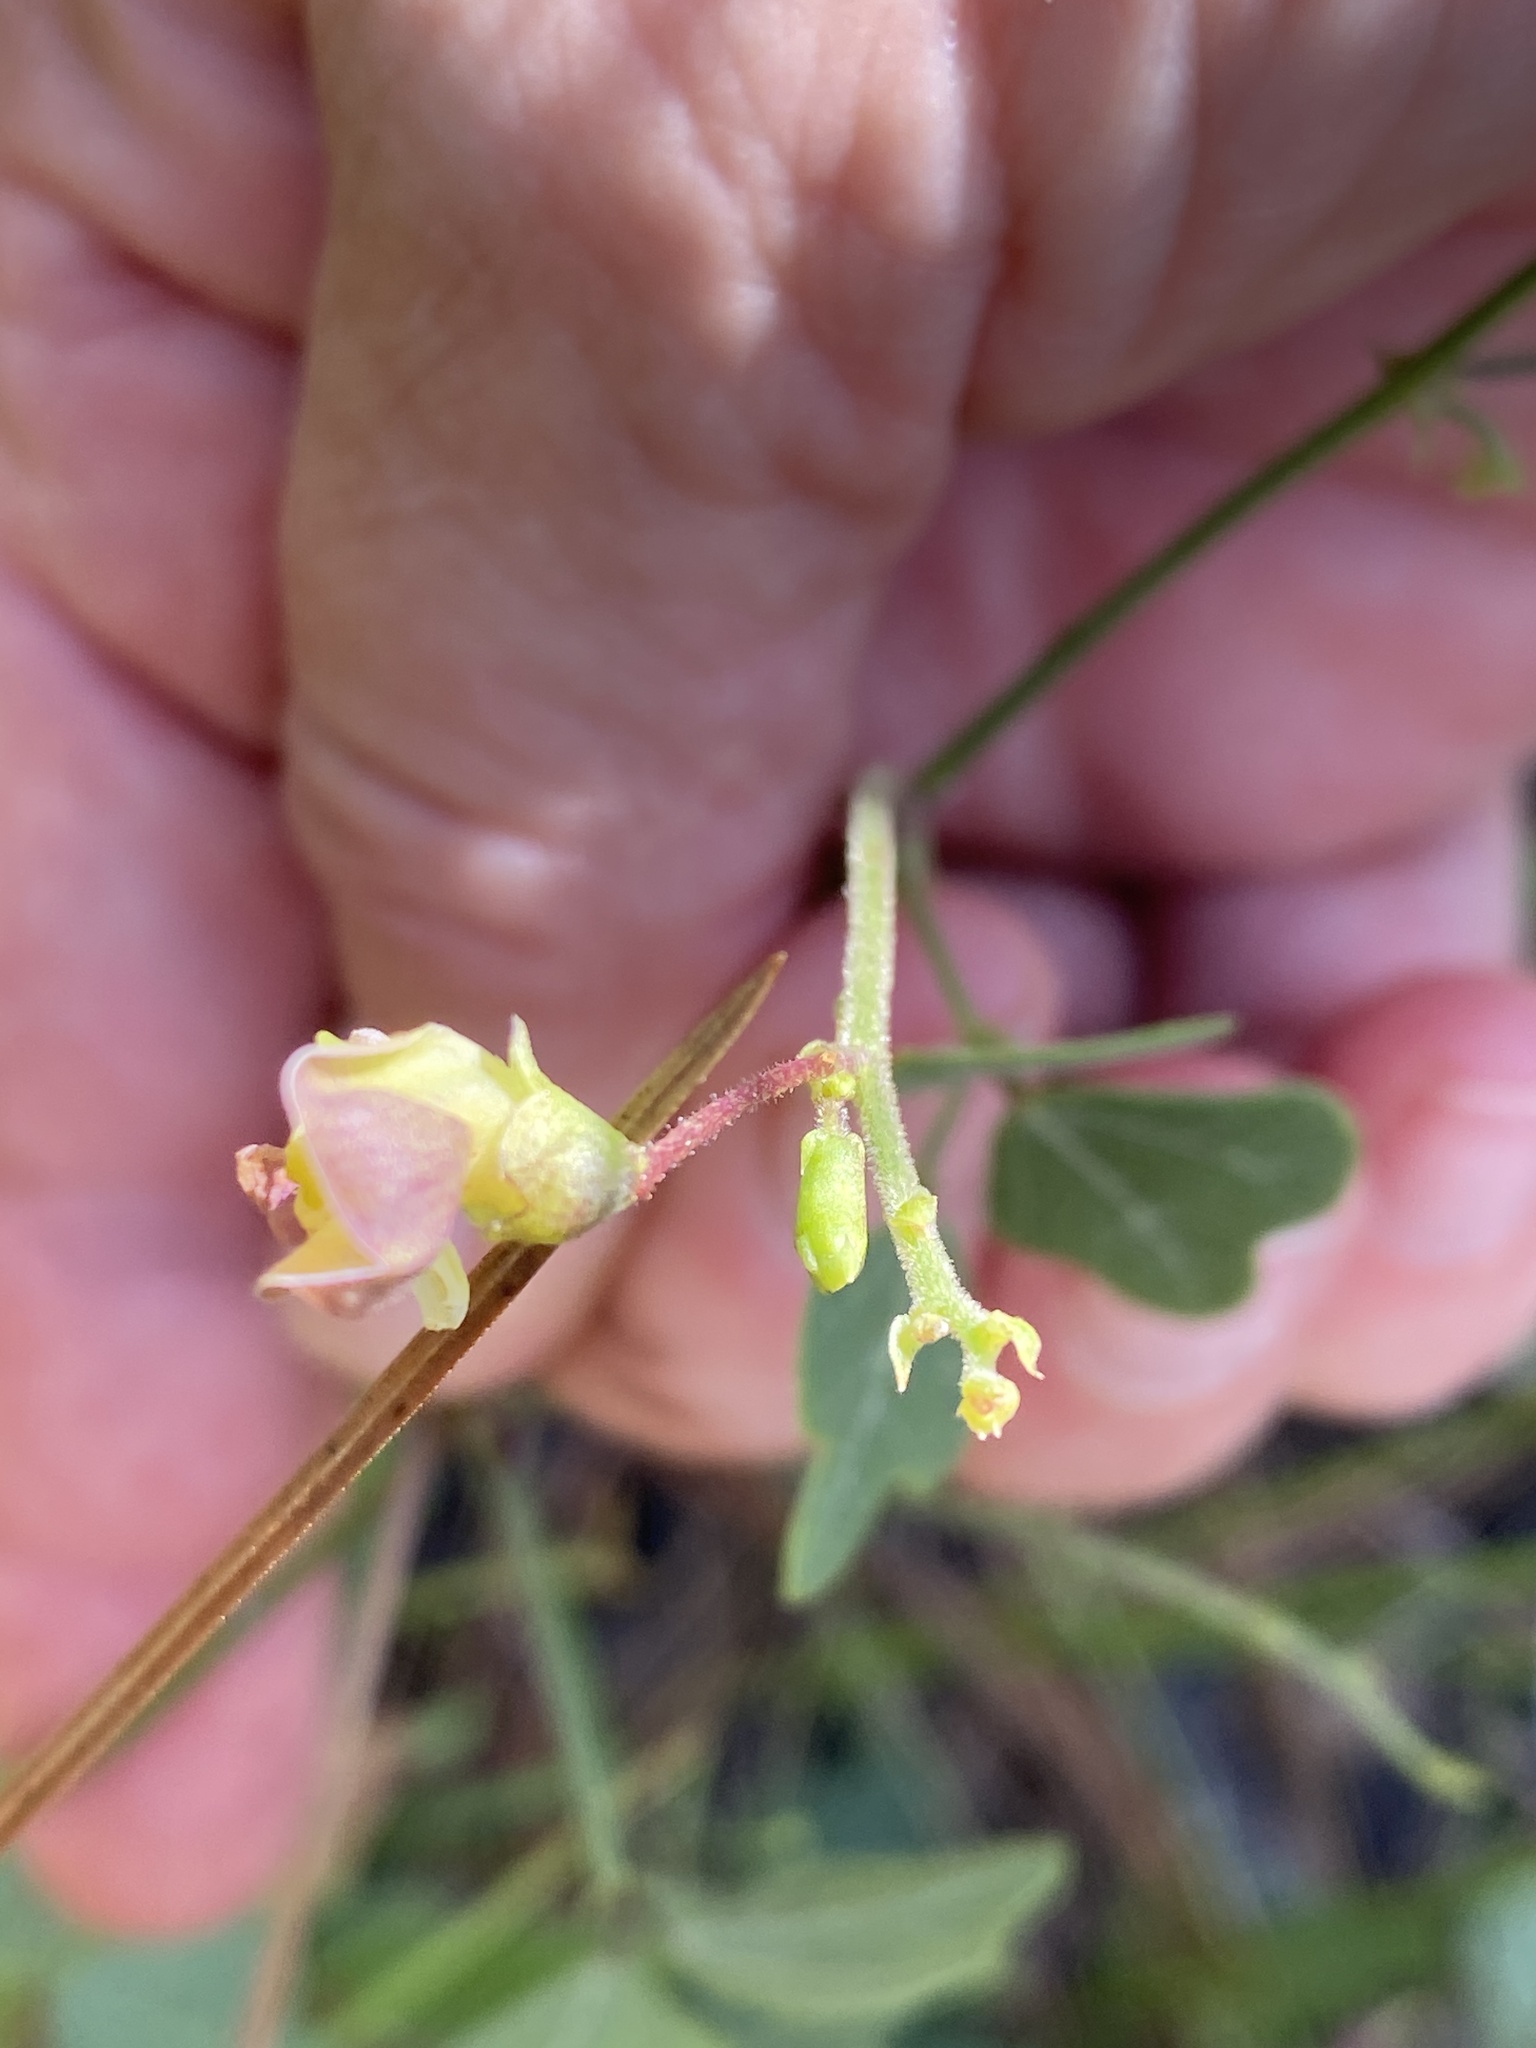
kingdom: Plantae
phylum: Tracheophyta
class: Magnoliopsida
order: Fabales
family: Fabaceae
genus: Phaseolus
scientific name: Phaseolus sinuatus
